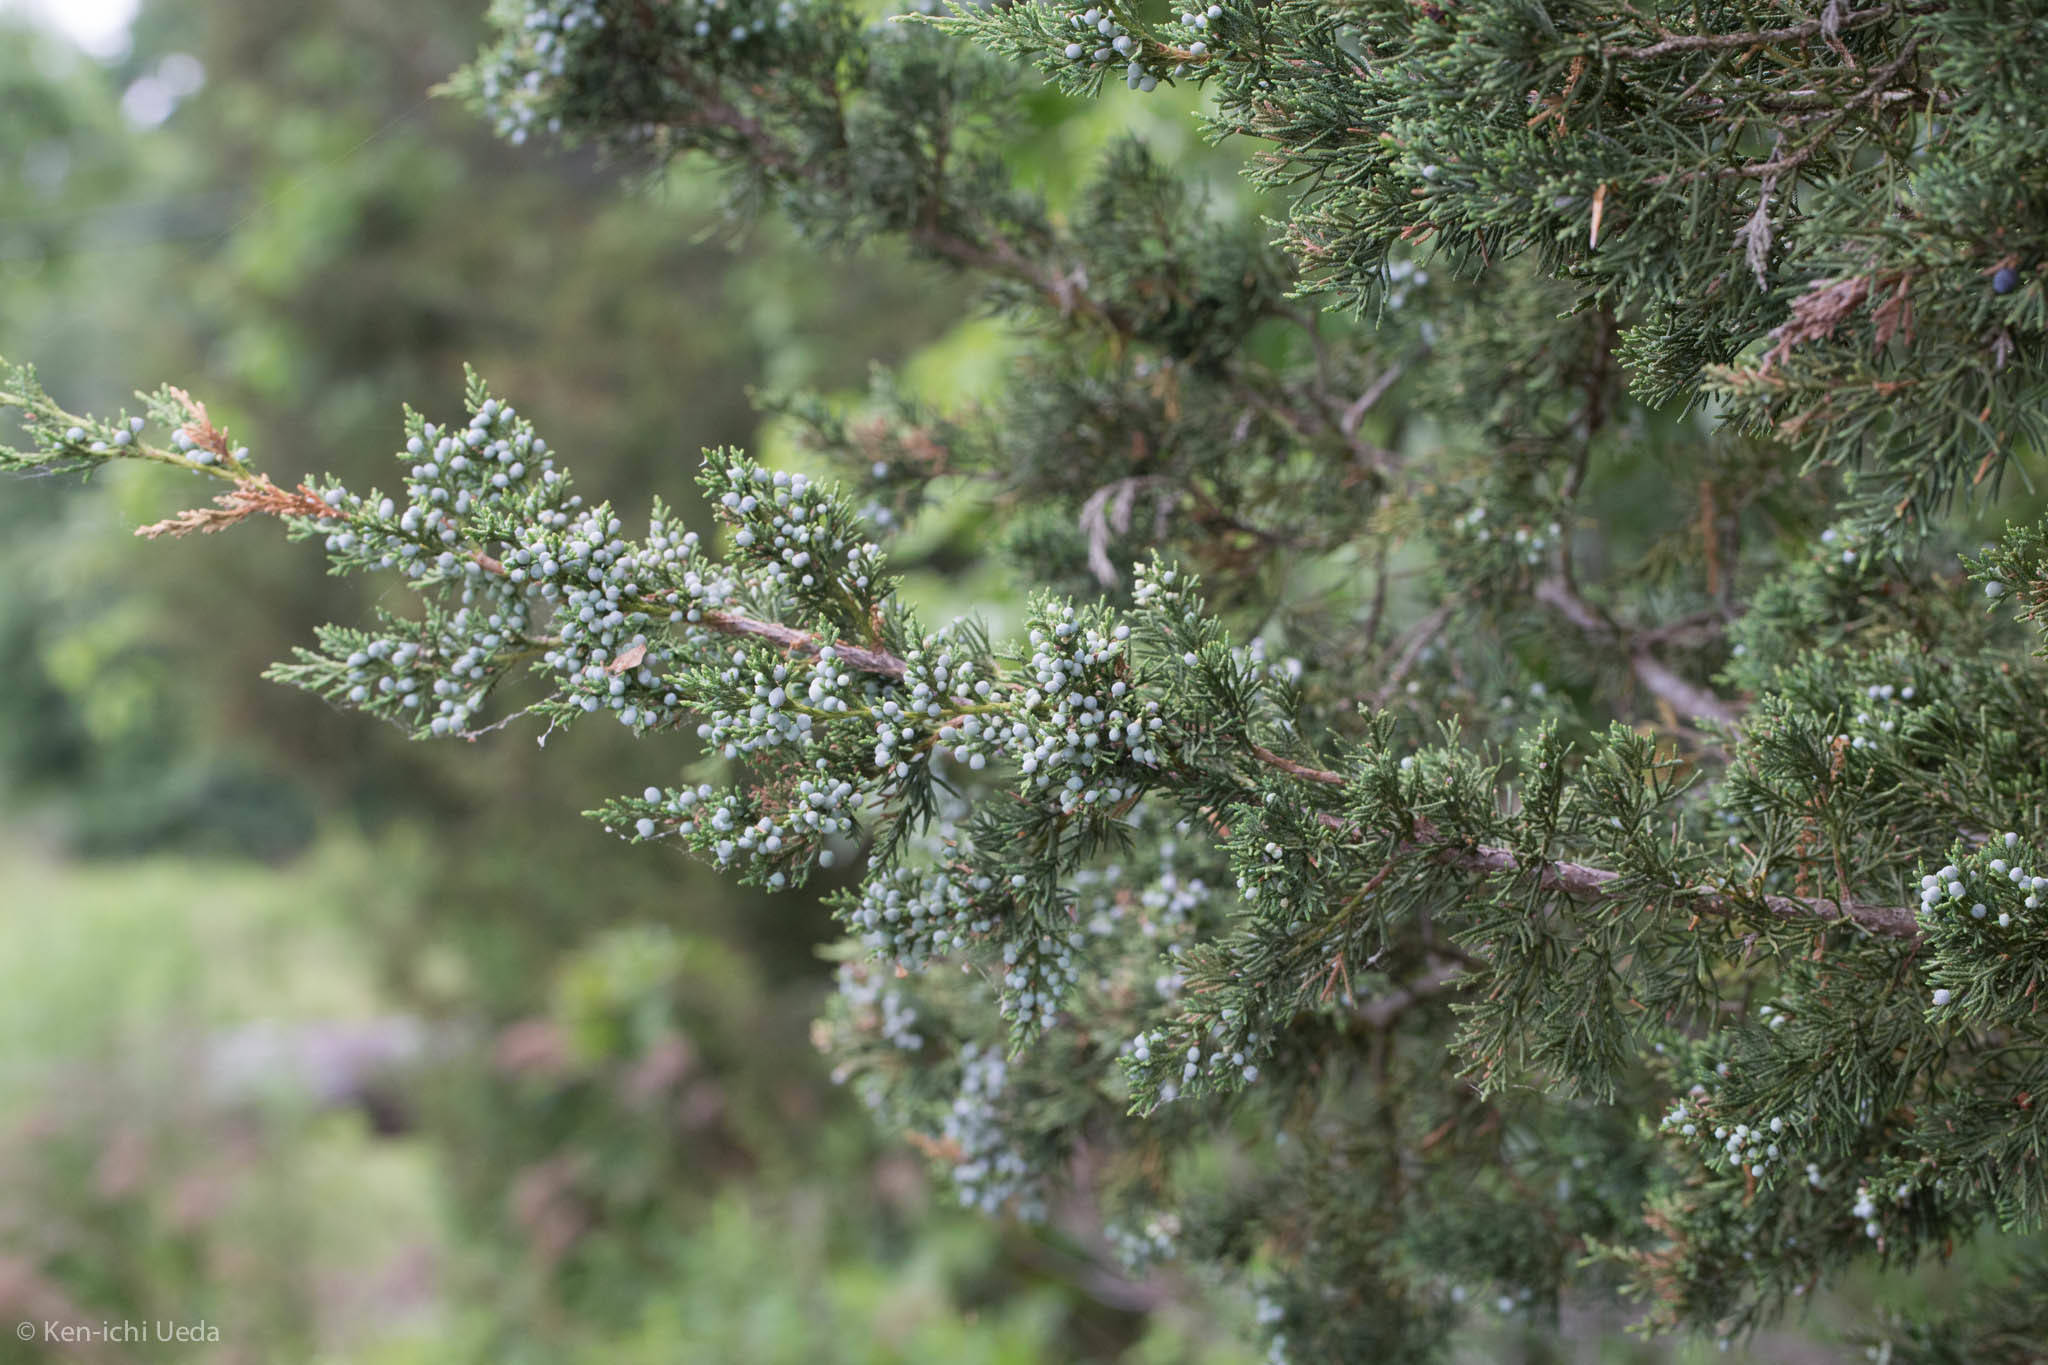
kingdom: Plantae
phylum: Tracheophyta
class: Pinopsida
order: Pinales
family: Cupressaceae
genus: Juniperus
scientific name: Juniperus virginiana
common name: Red juniper
